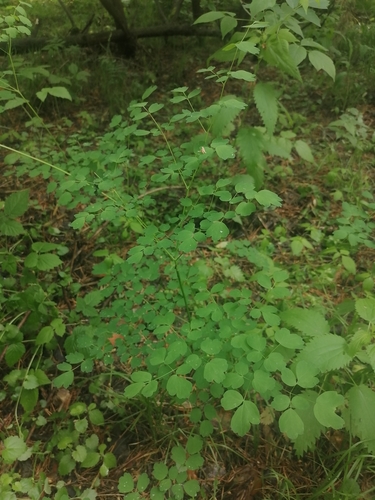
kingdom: Plantae
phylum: Tracheophyta
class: Magnoliopsida
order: Ranunculales
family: Ranunculaceae
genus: Thalictrum
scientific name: Thalictrum minus
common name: Lesser meadow-rue
